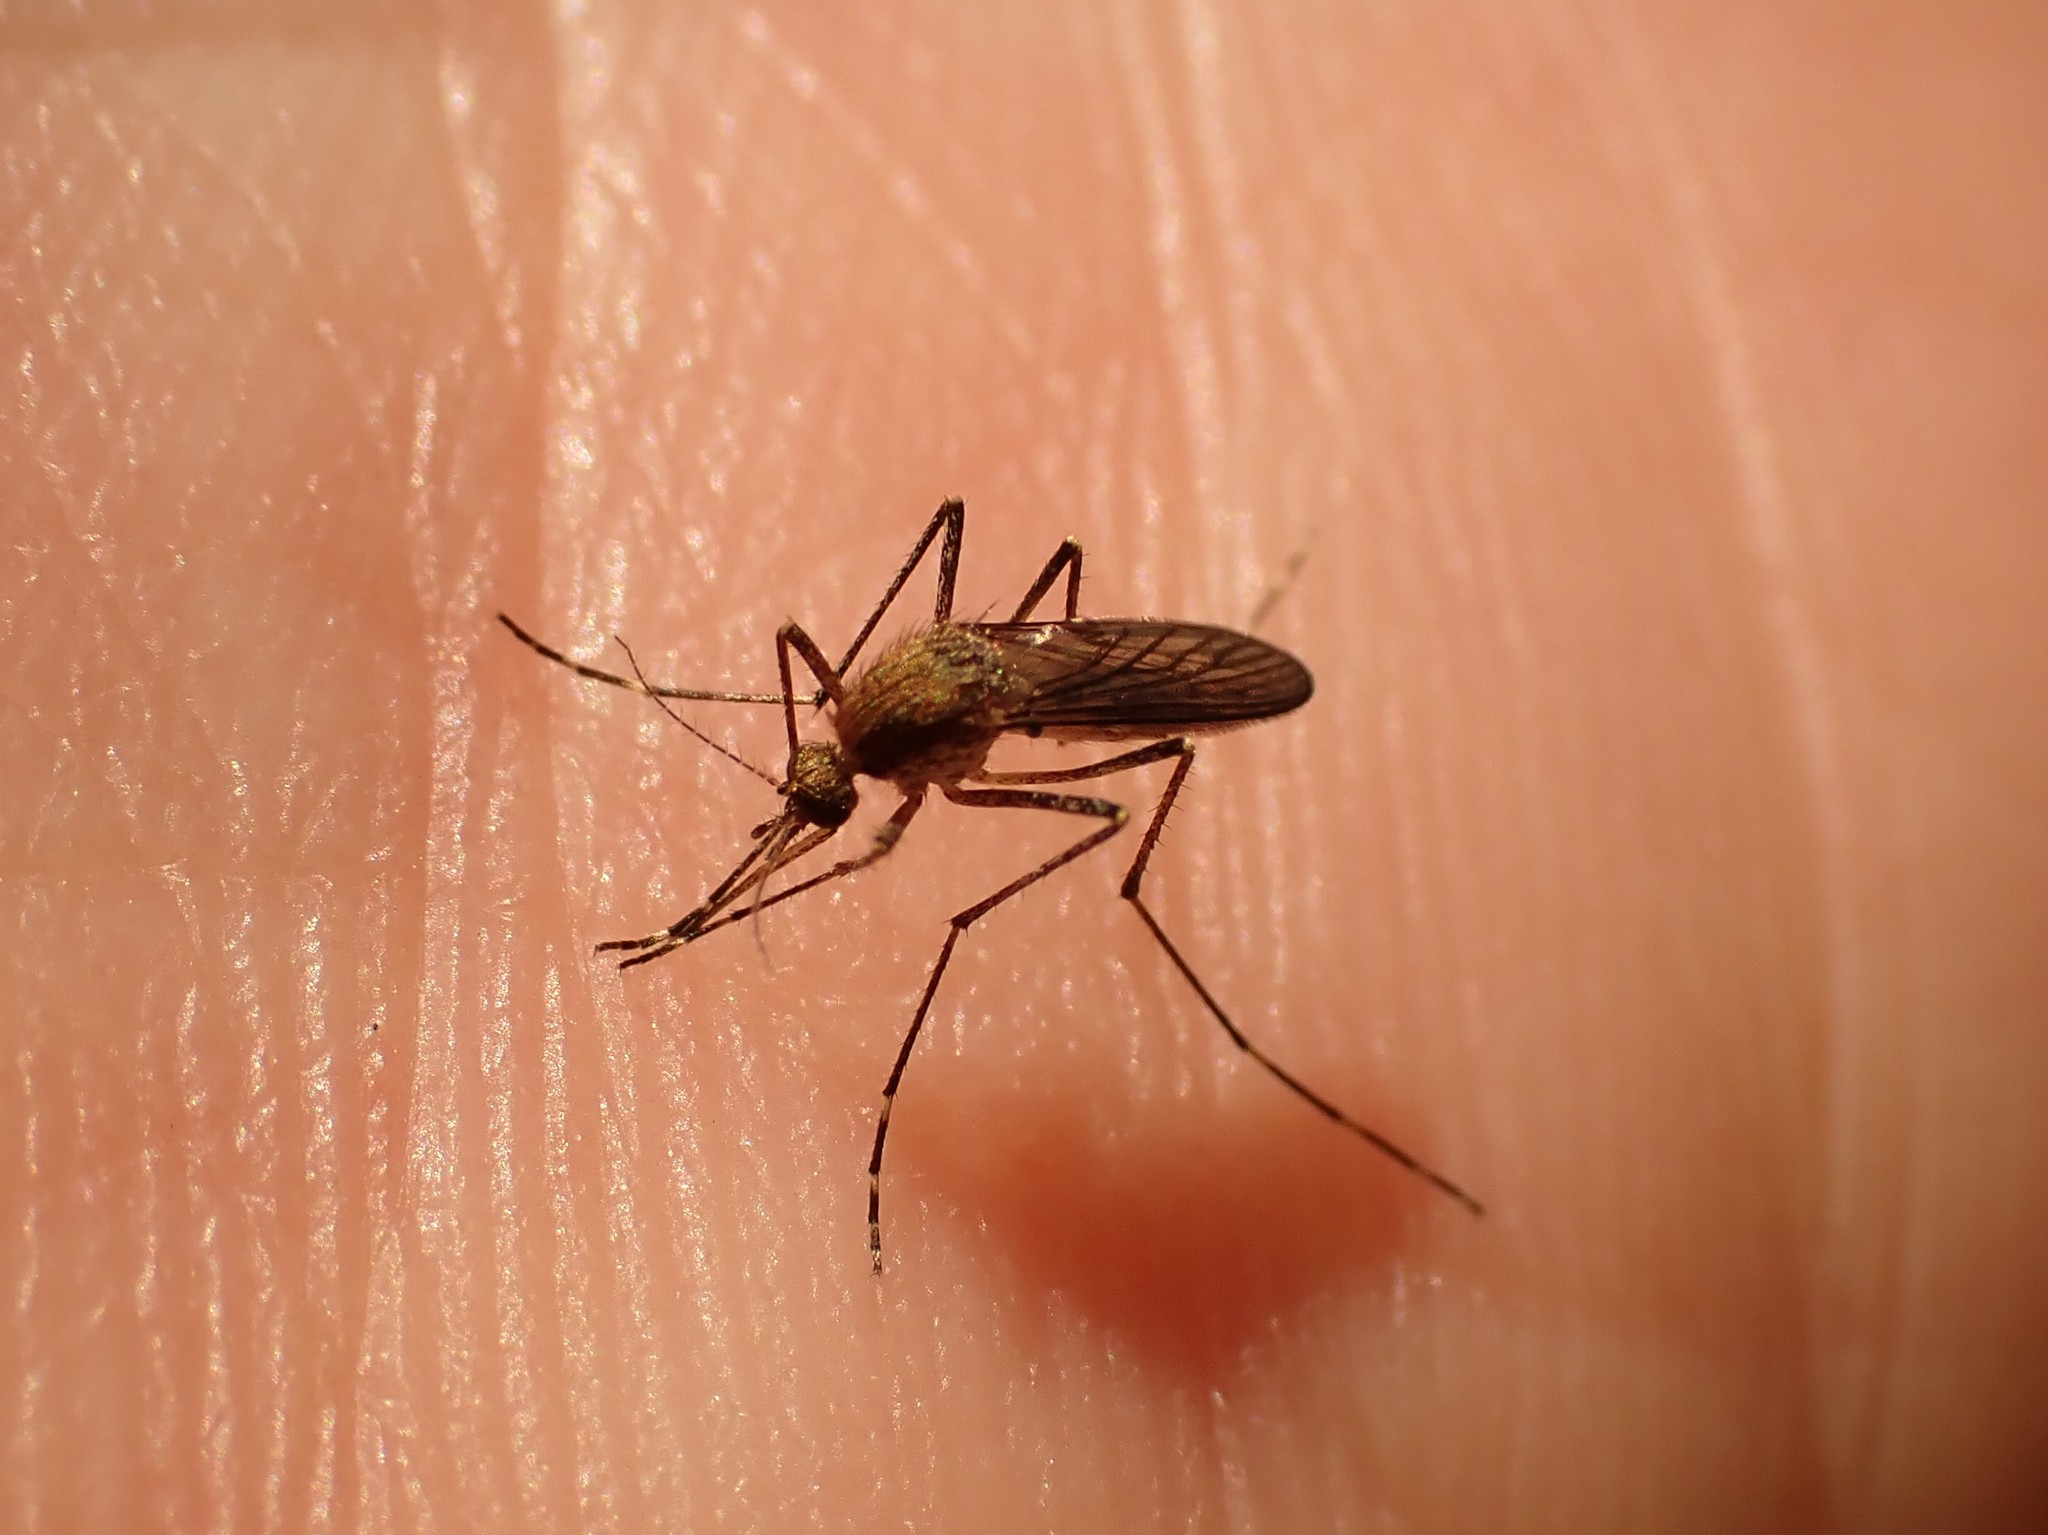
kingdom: Animalia
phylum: Arthropoda
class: Insecta
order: Diptera
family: Culicidae
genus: Aedes
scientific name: Aedes camptorhynchus
